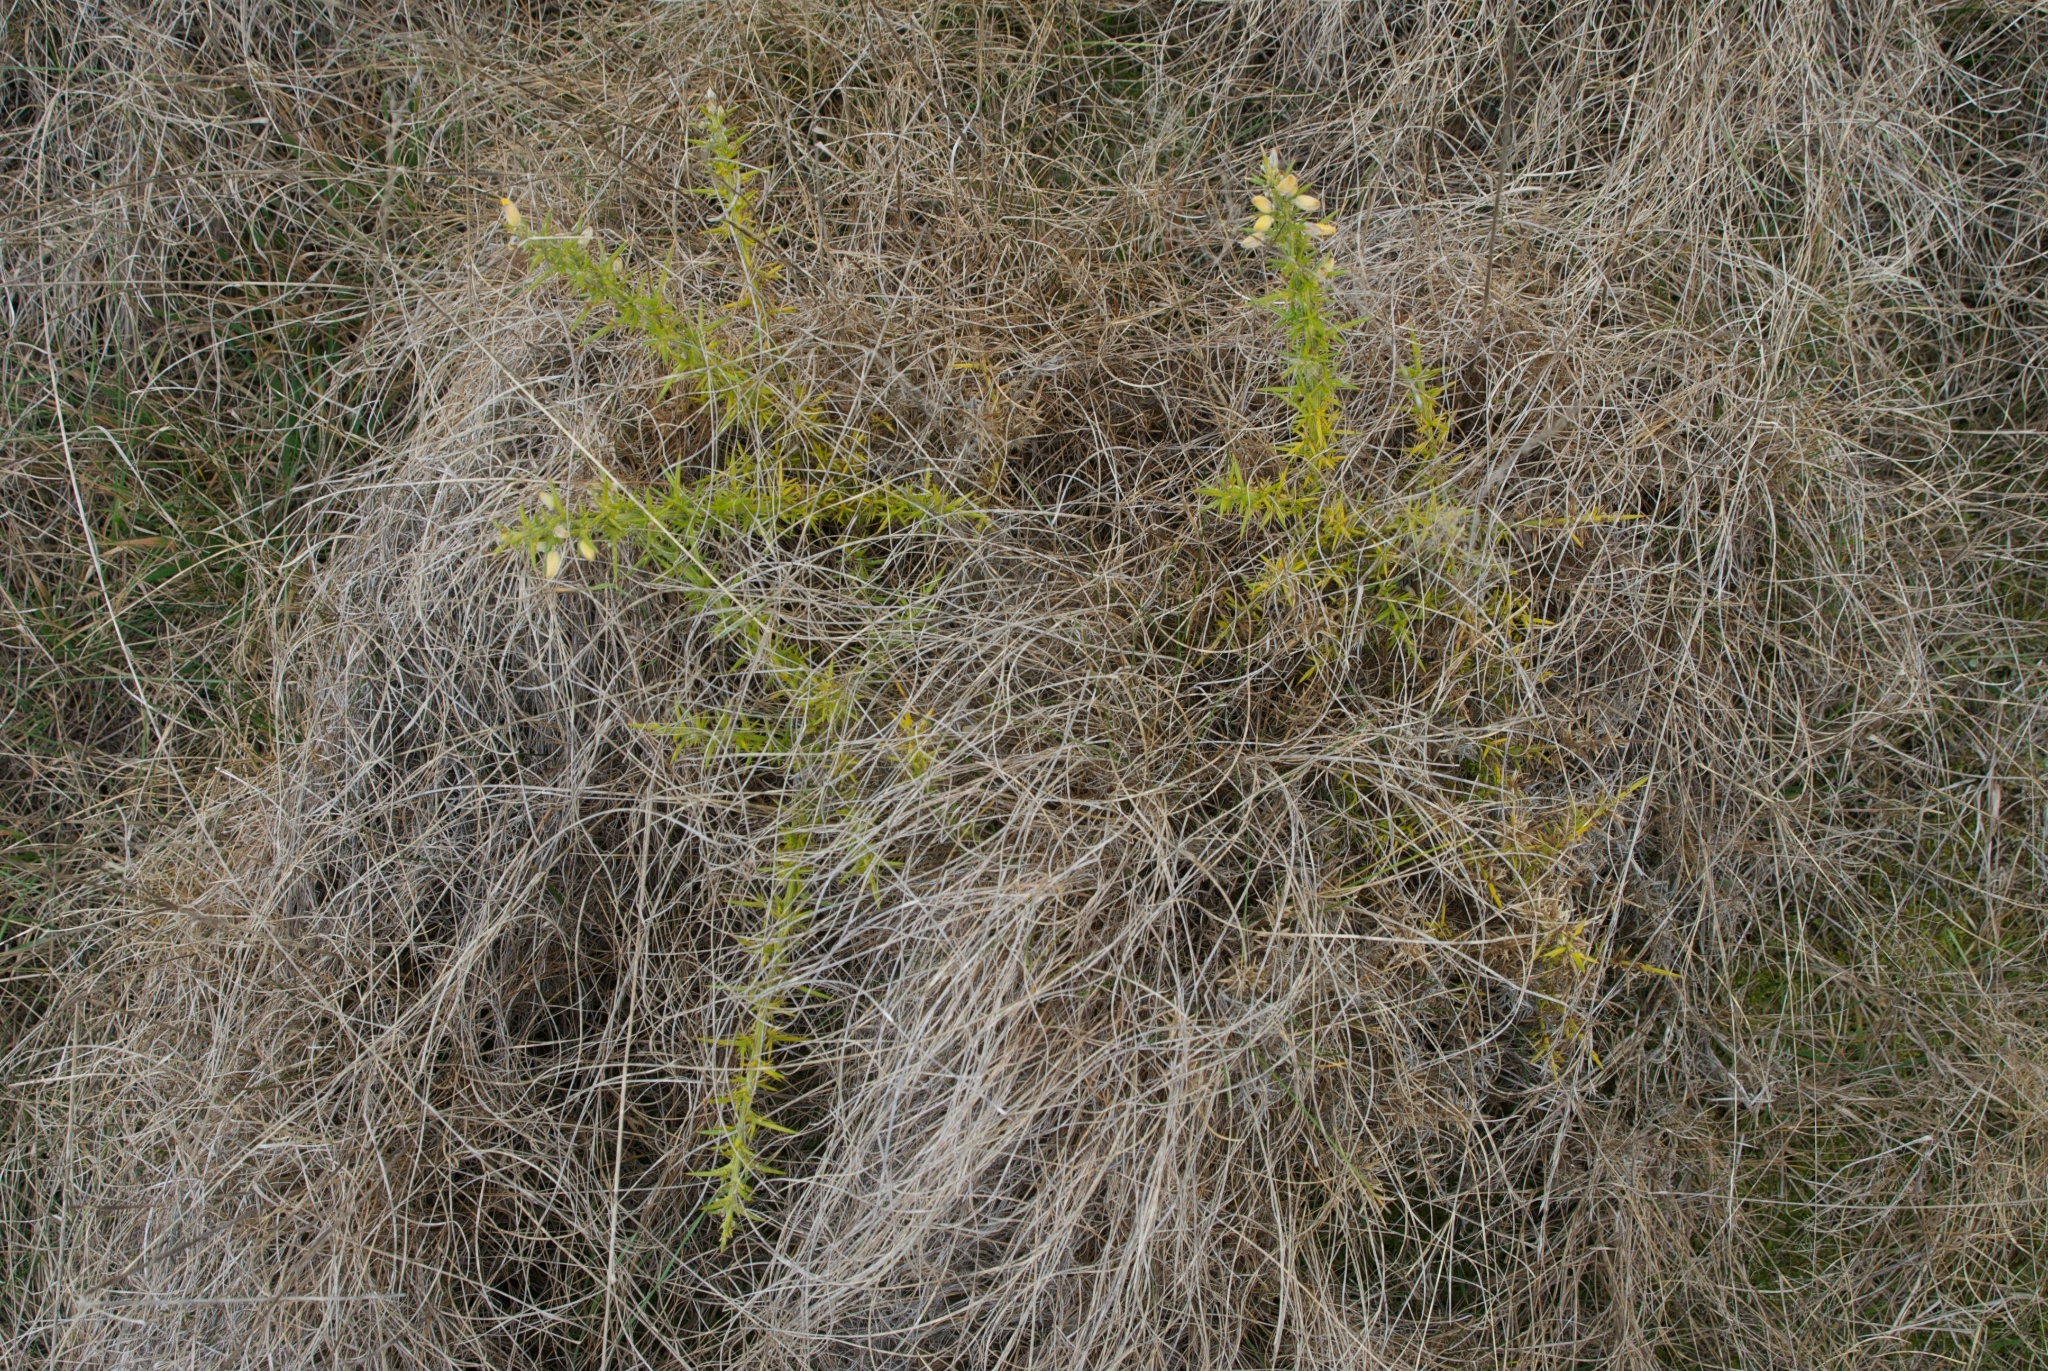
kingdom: Plantae
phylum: Tracheophyta
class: Magnoliopsida
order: Fabales
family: Fabaceae
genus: Ulex
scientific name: Ulex europaeus
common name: Common gorse
